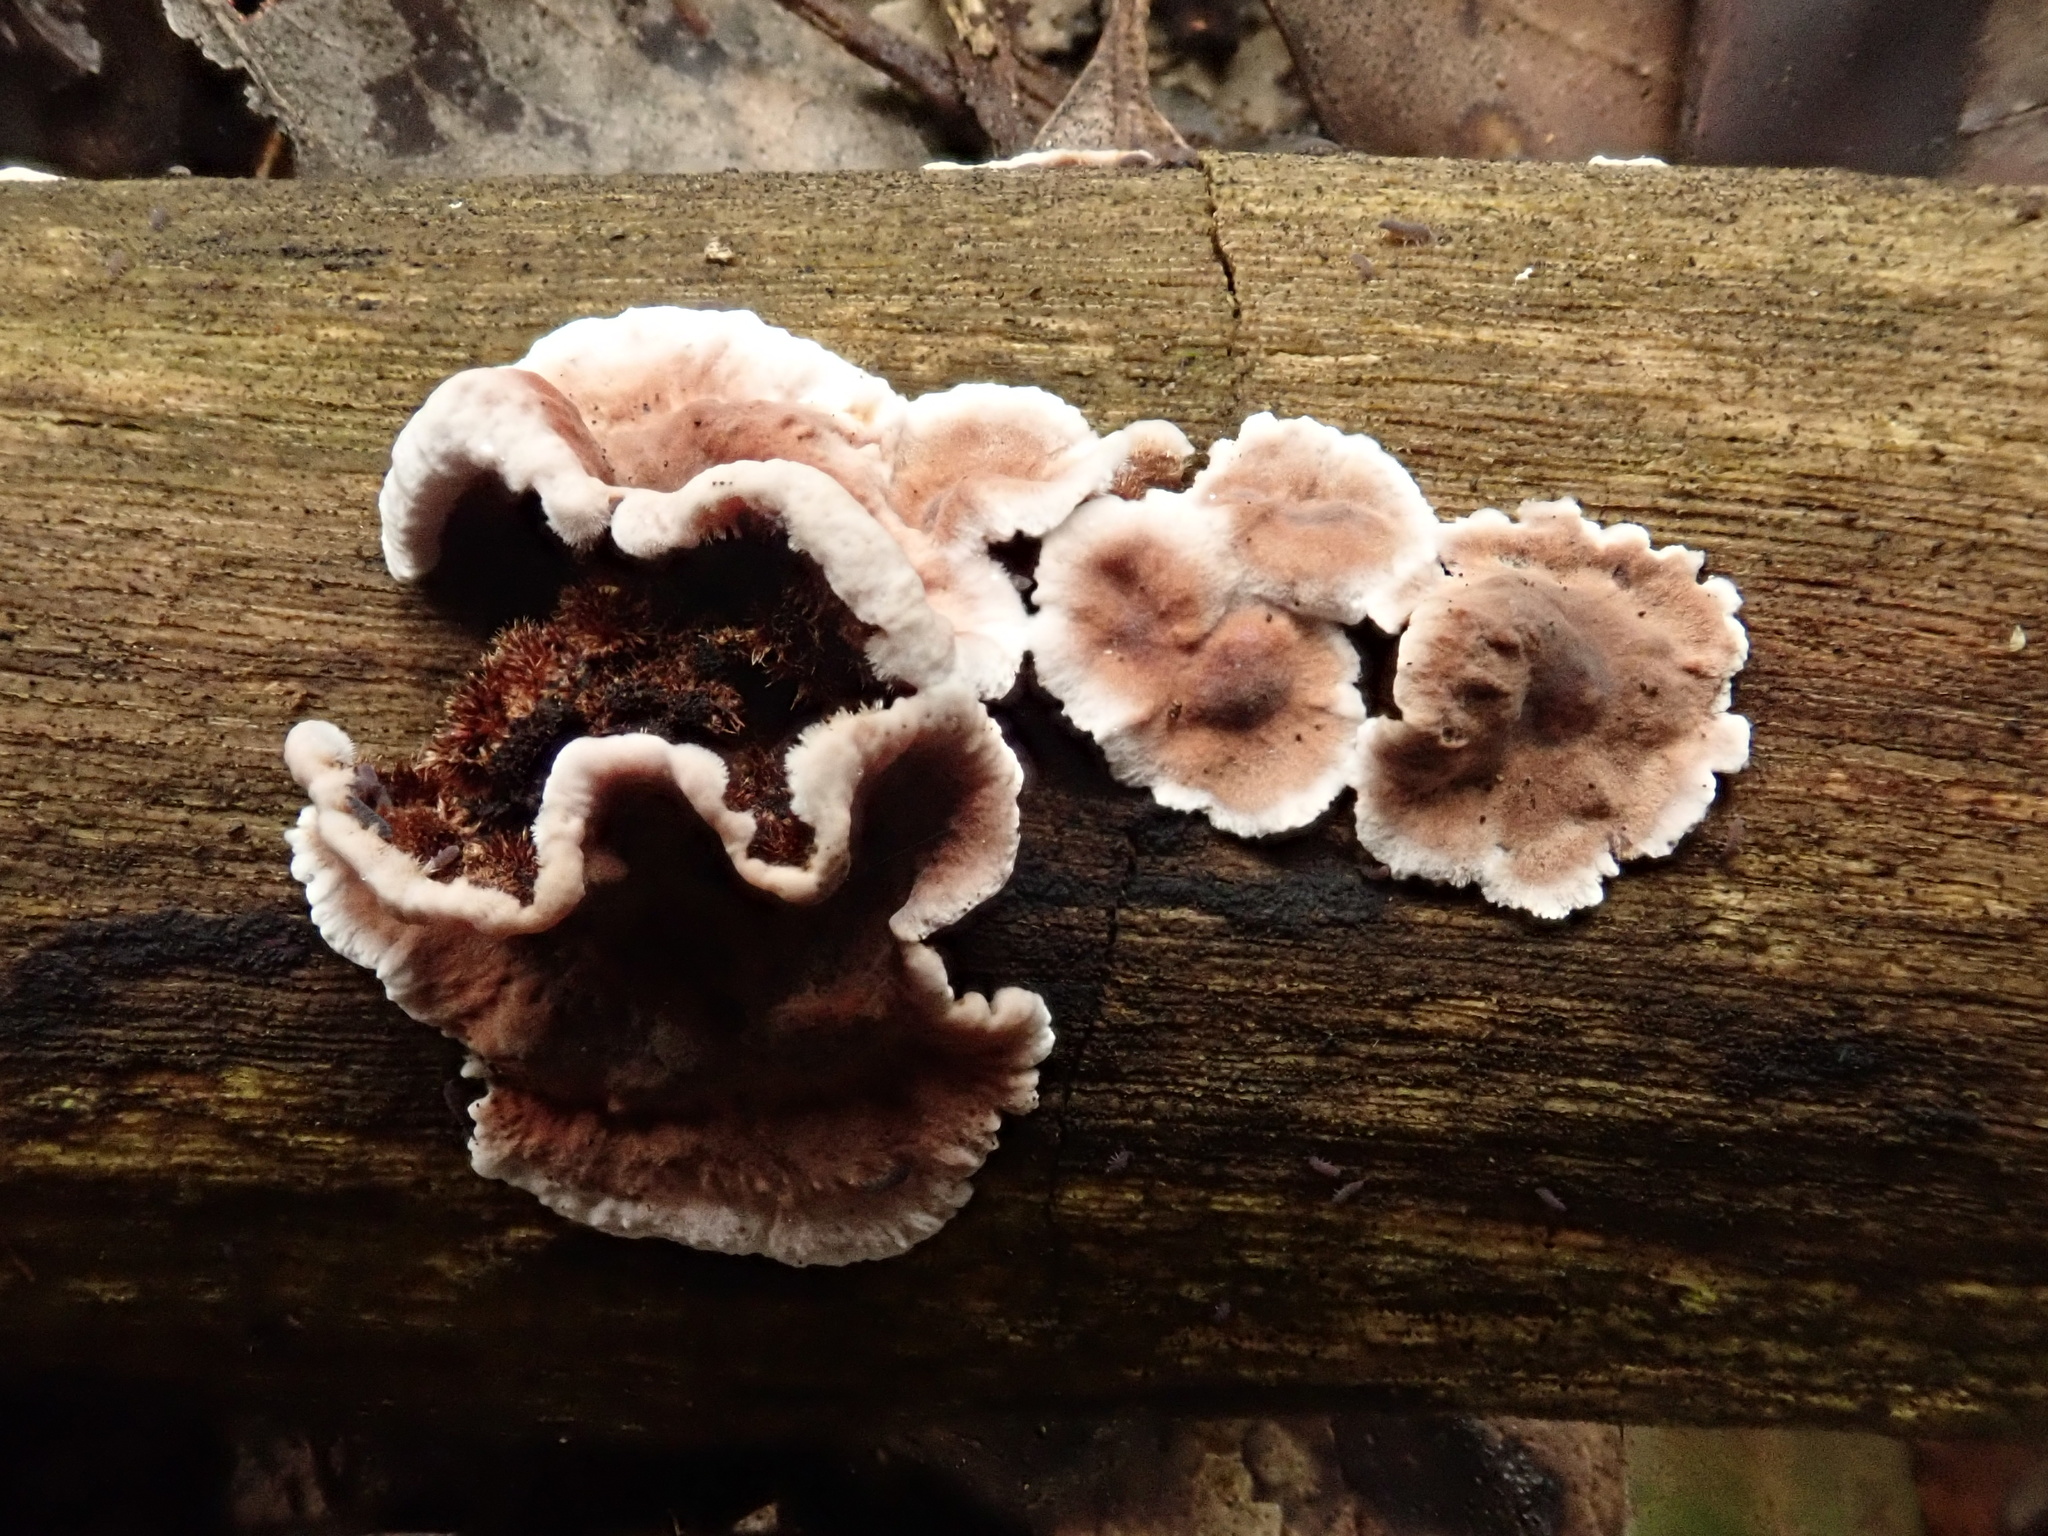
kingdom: Fungi
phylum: Basidiomycota
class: Agaricomycetes
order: Russulales
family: Stereaceae
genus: Xylobolus
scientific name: Xylobolus illudens
